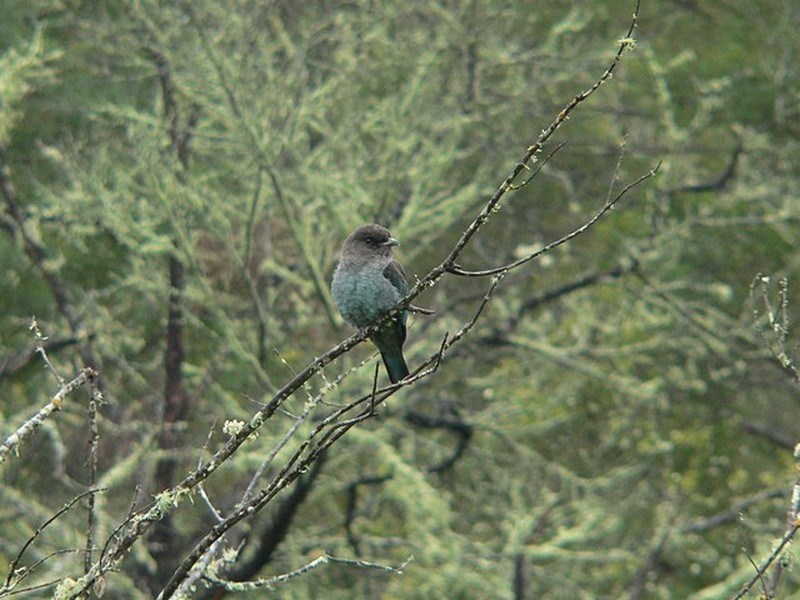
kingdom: Animalia
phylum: Chordata
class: Aves
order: Coraciiformes
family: Coraciidae
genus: Eurystomus
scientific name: Eurystomus orientalis
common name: Oriental dollarbird
